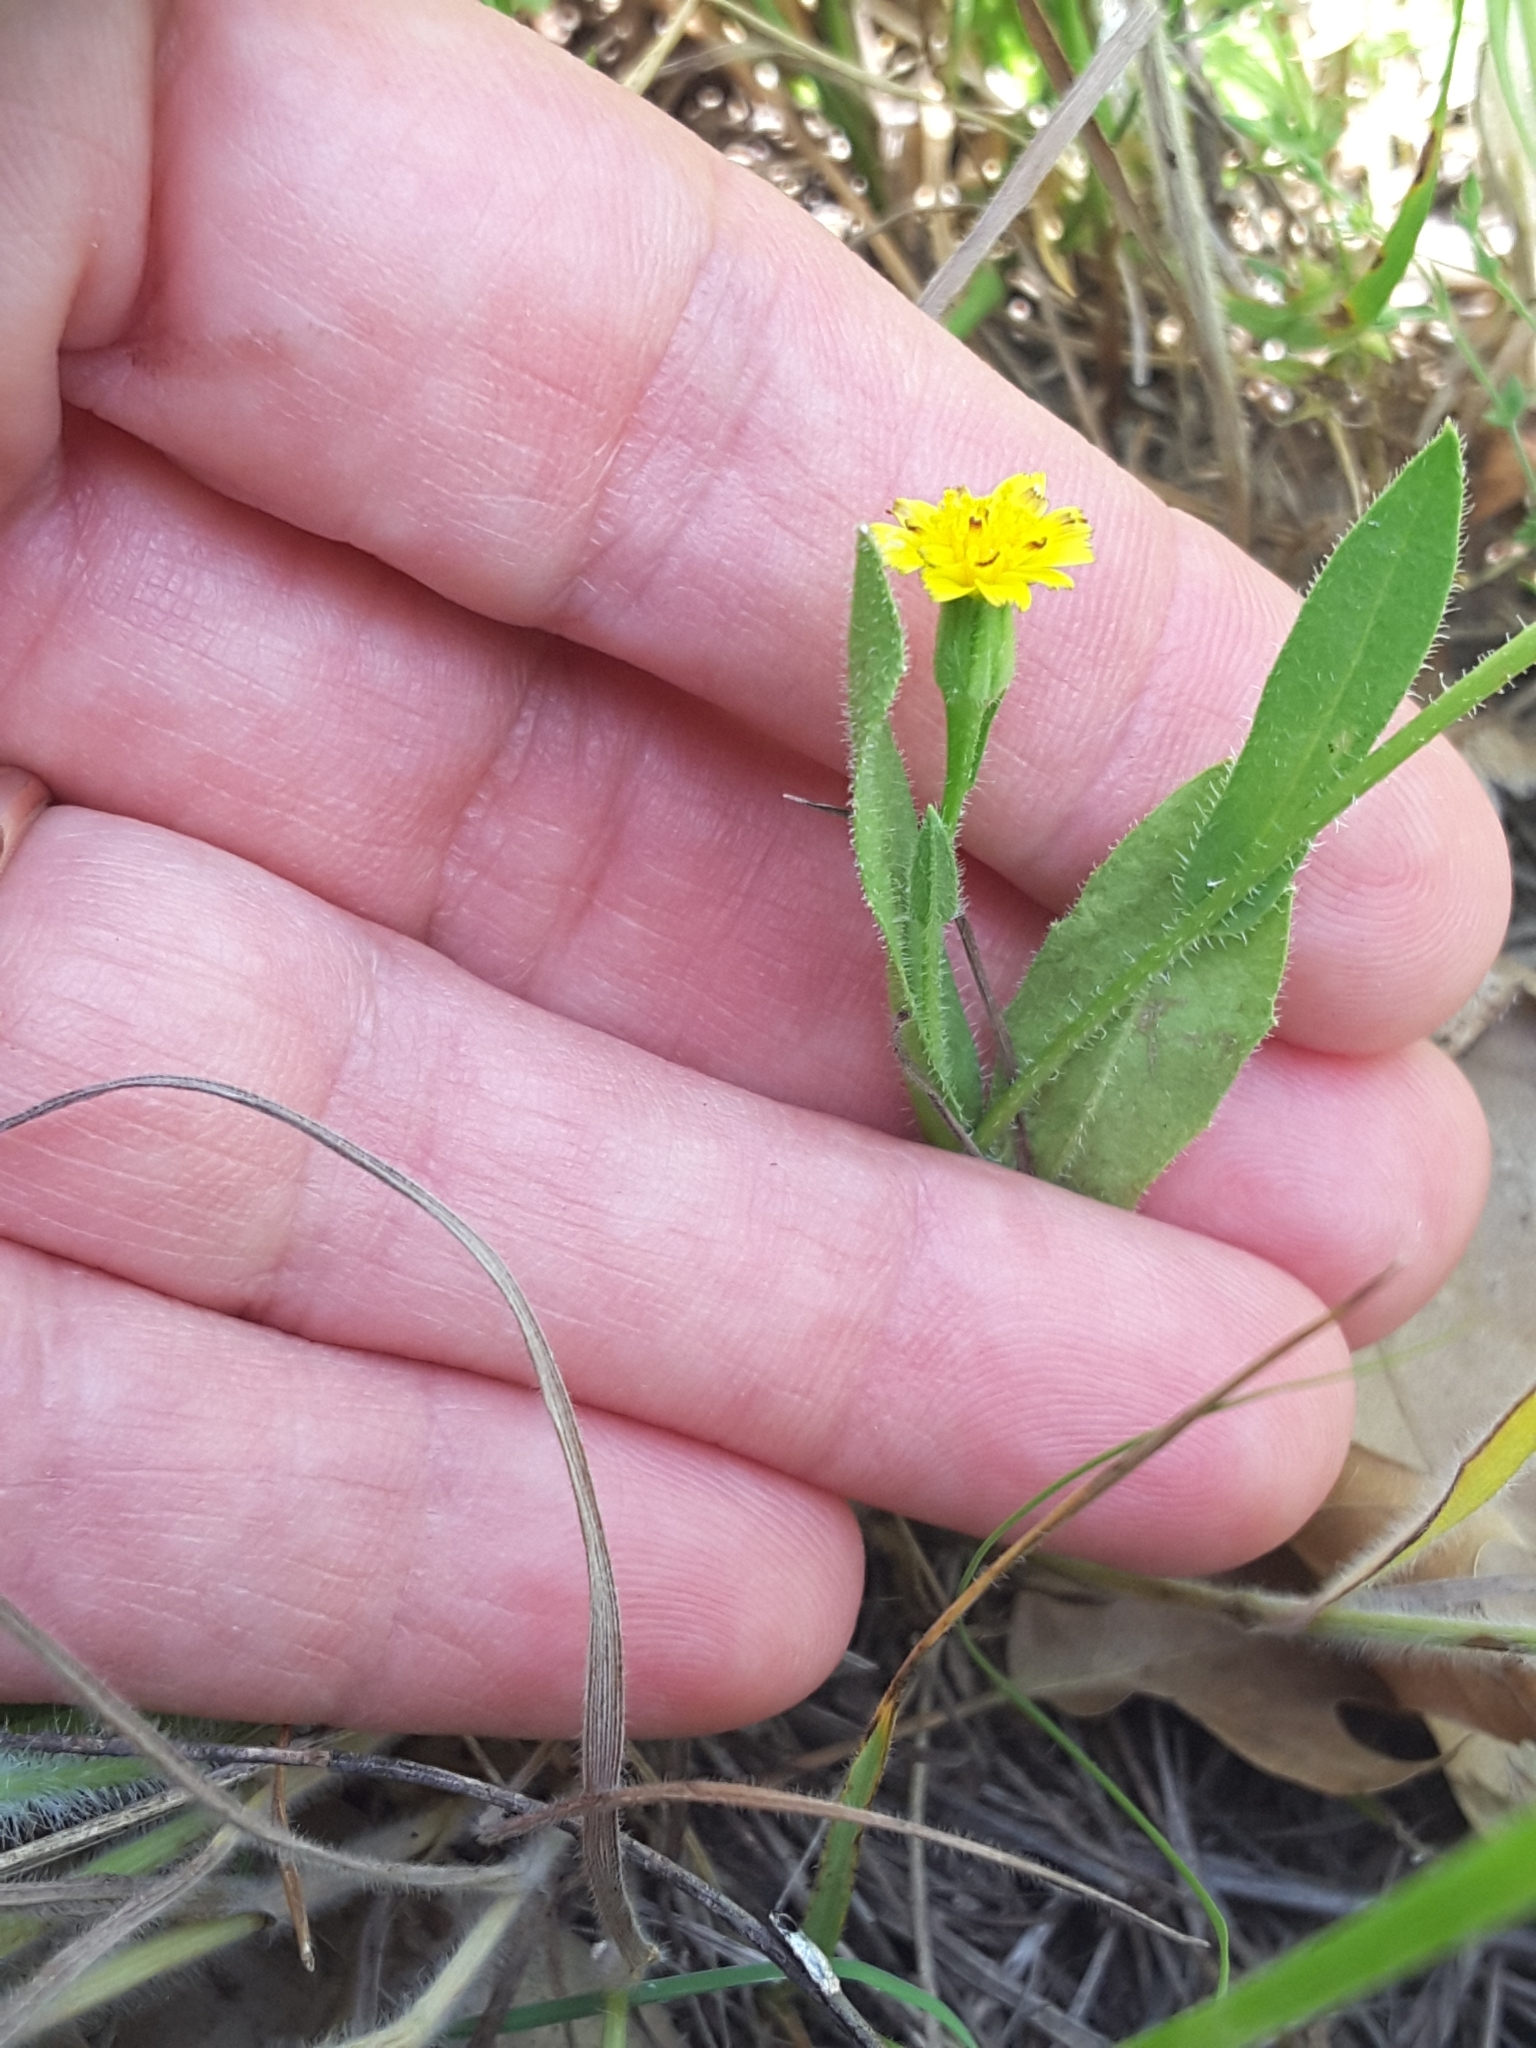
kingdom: Plantae
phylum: Tracheophyta
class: Magnoliopsida
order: Asterales
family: Asteraceae
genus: Hedypnois
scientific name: Hedypnois rhagadioloides
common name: Cretan weed
